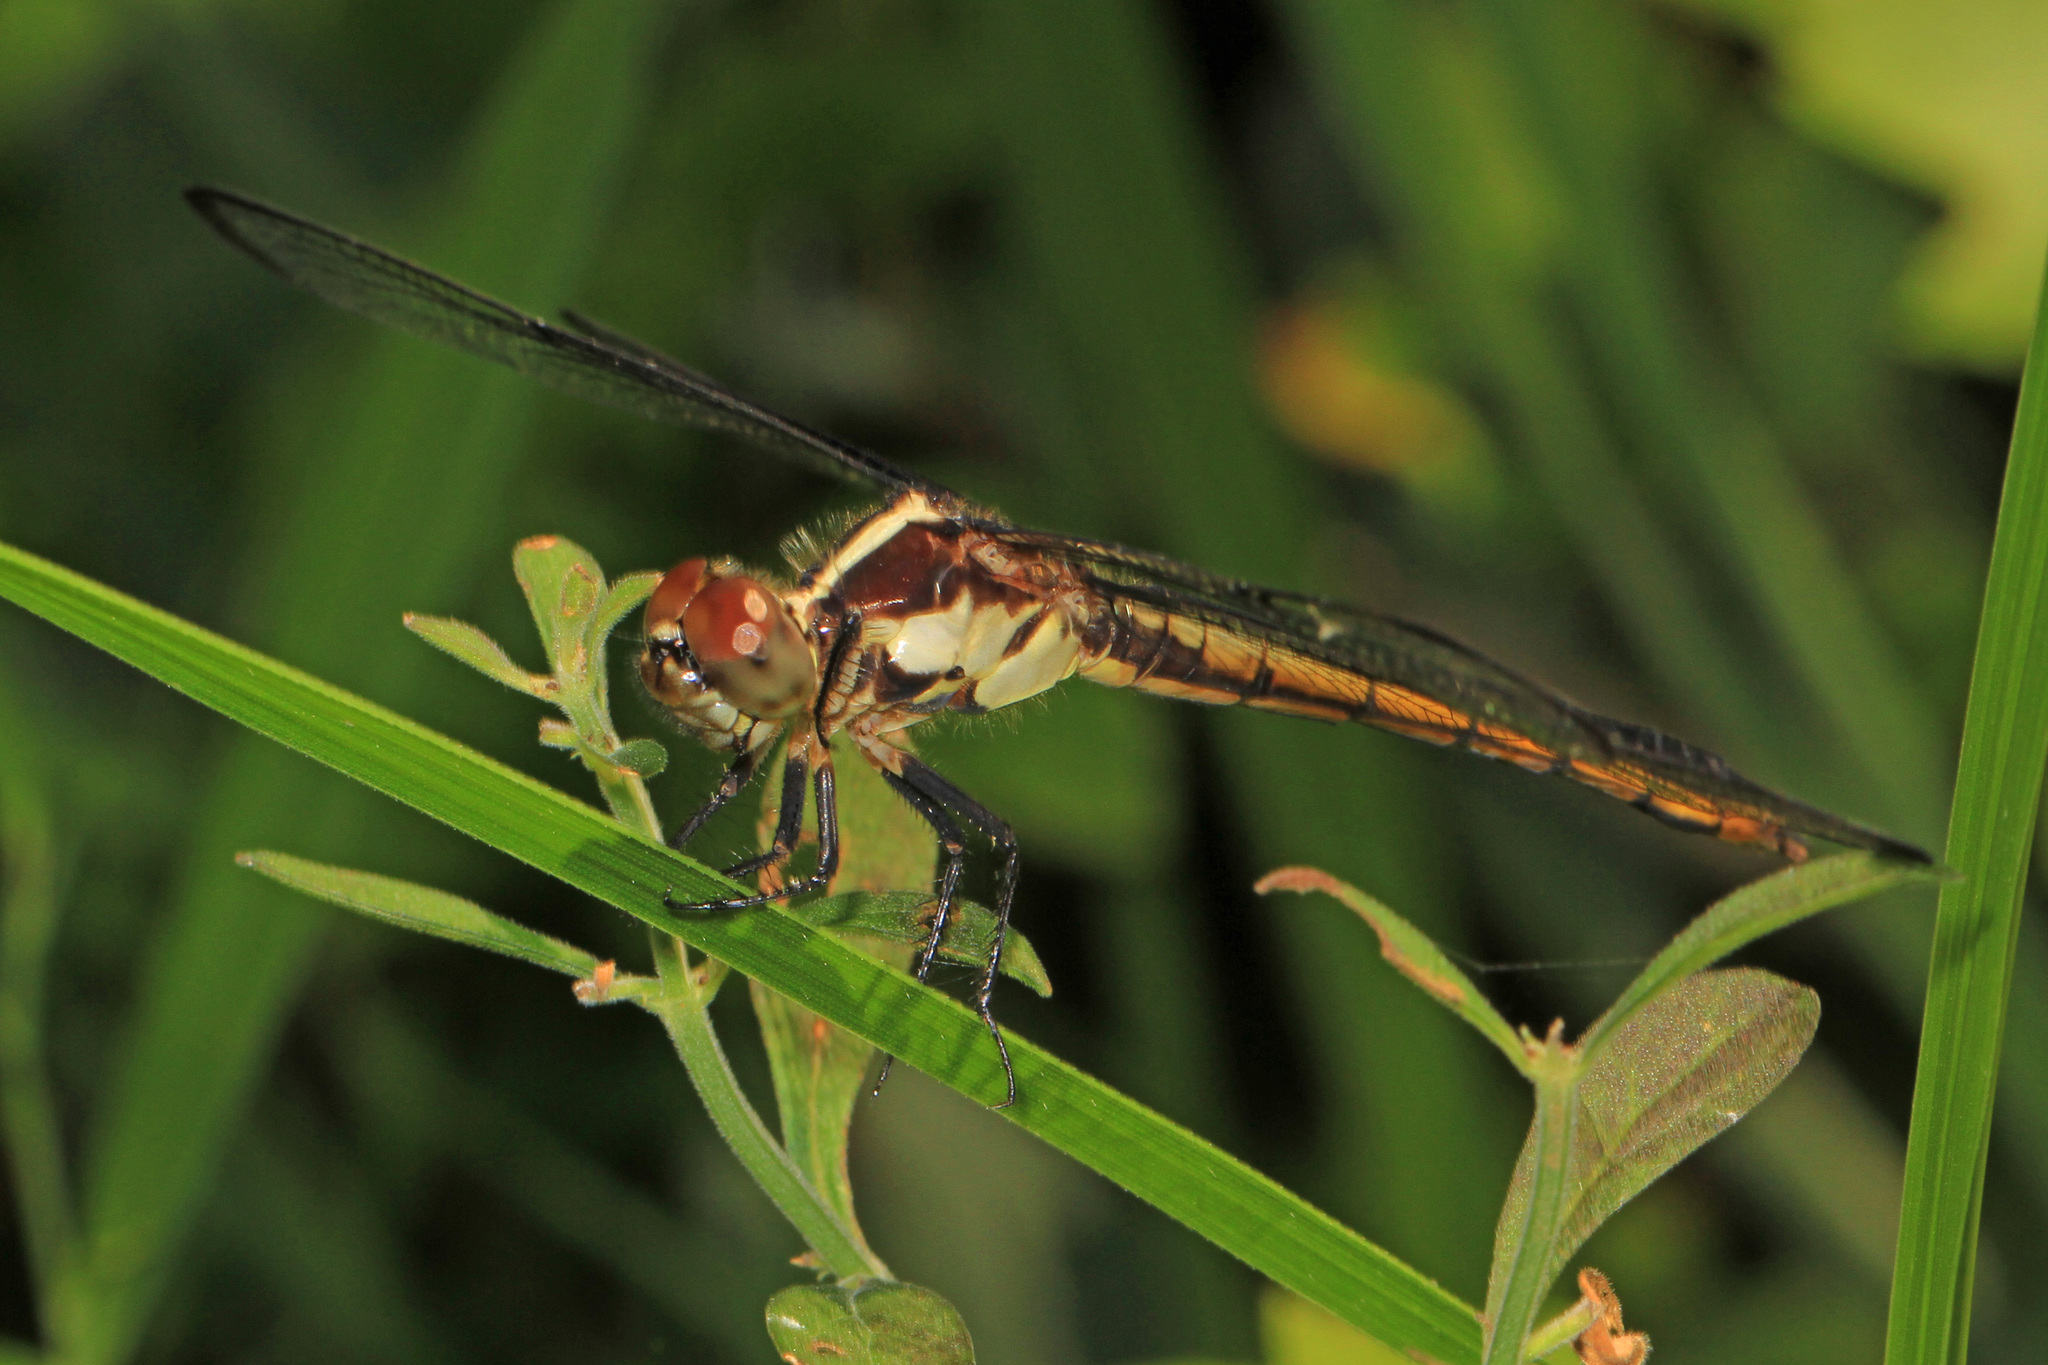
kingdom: Animalia
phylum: Arthropoda
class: Insecta
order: Odonata
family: Libellulidae
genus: Libellula
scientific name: Libellula incesta
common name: Slaty skimmer
